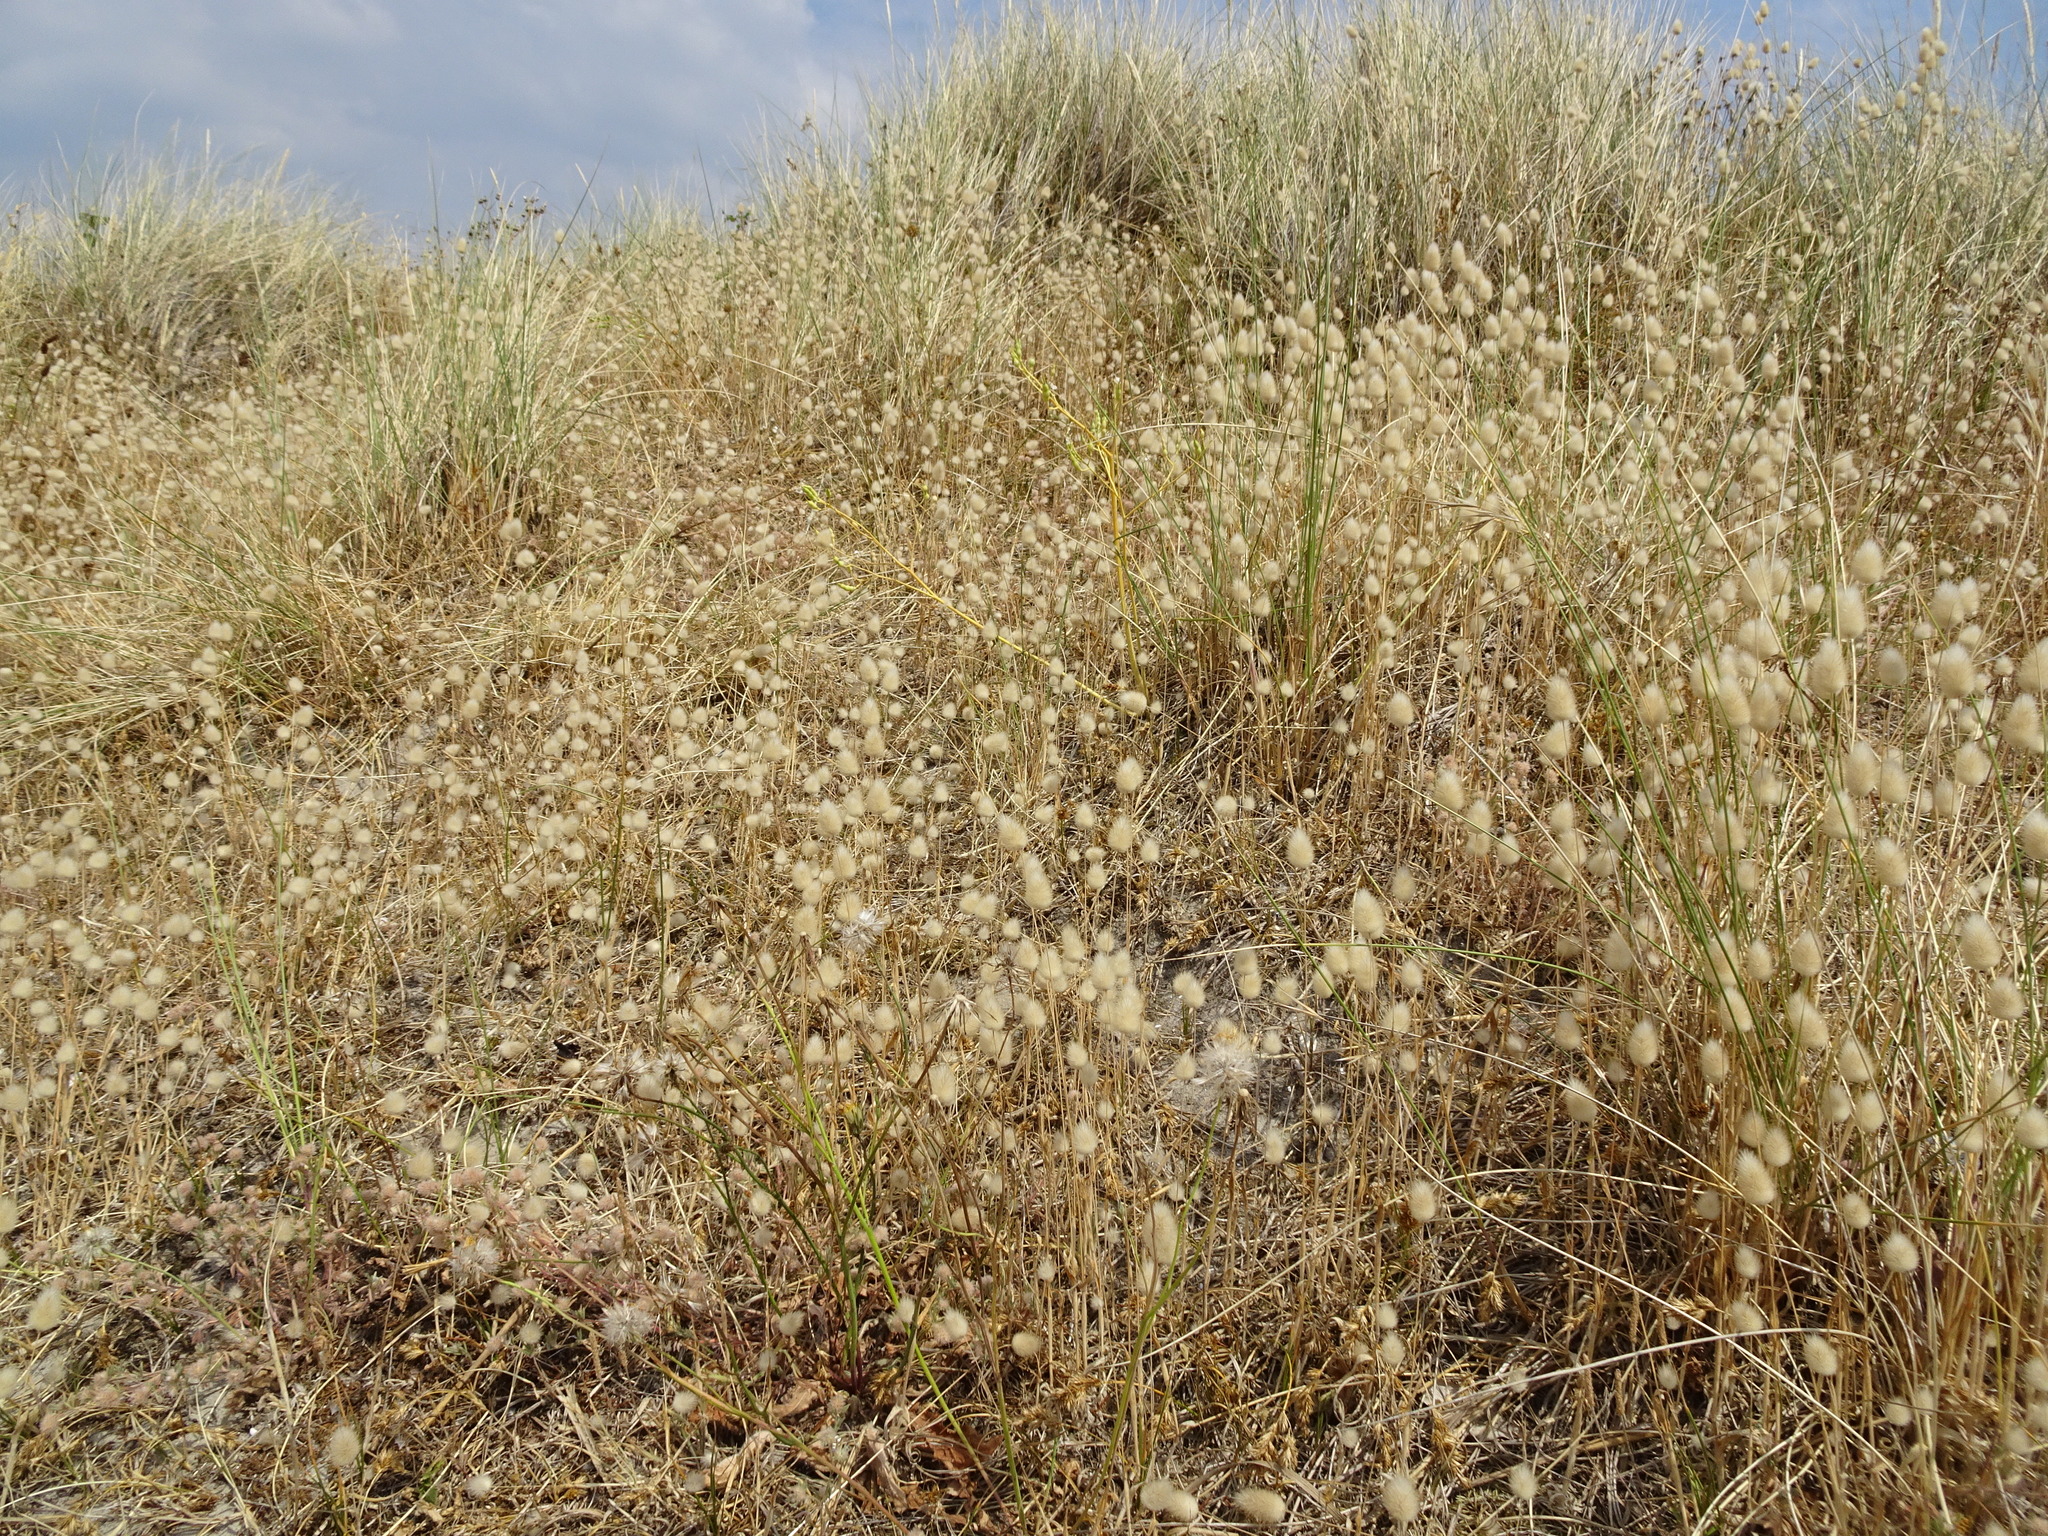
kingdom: Plantae
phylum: Tracheophyta
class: Liliopsida
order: Poales
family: Poaceae
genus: Lagurus
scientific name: Lagurus ovatus
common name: Hare's-tail
